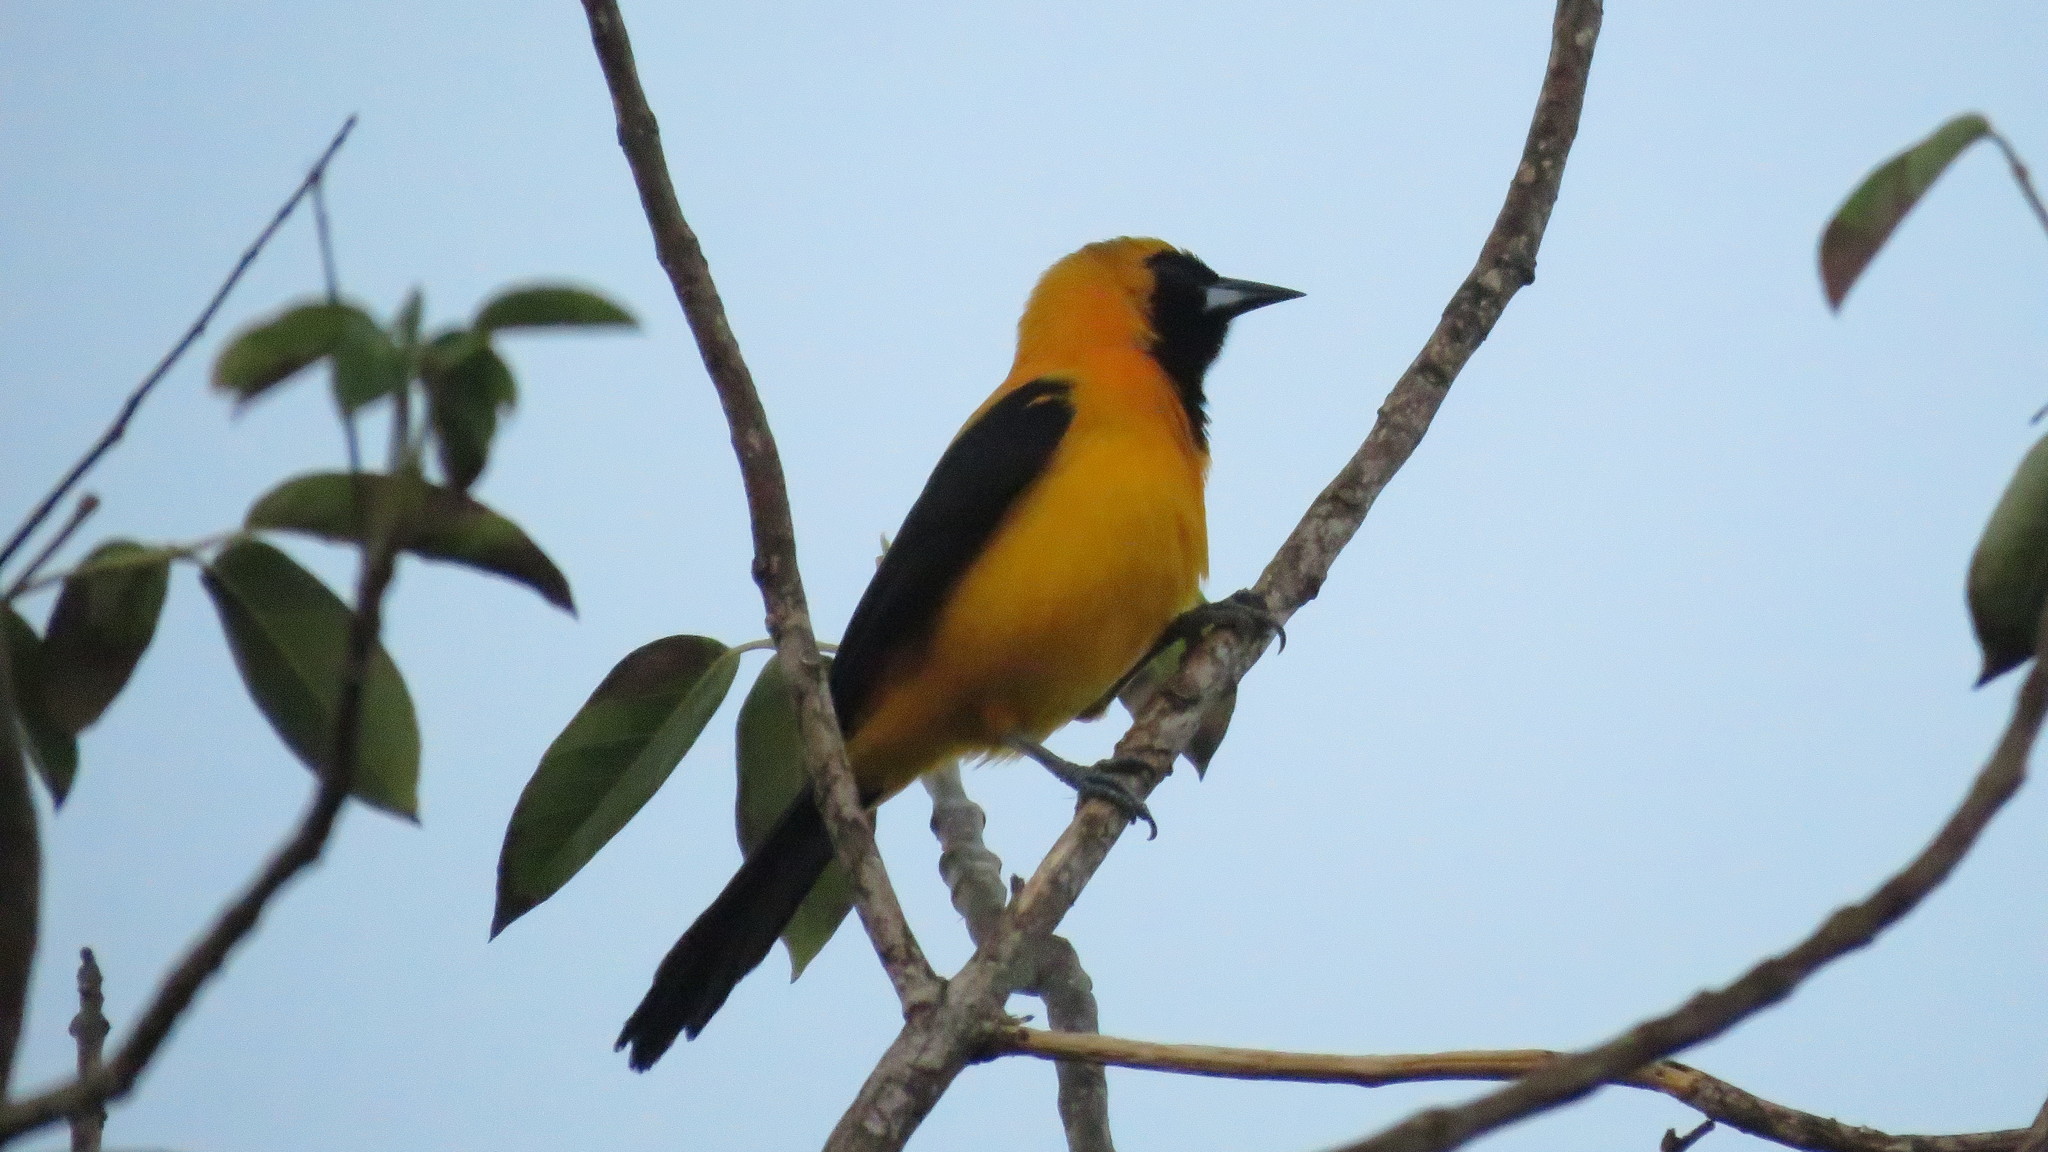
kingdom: Animalia
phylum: Chordata
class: Aves
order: Passeriformes
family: Icteridae
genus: Icterus
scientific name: Icterus chrysater
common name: Yellow-backed oriole
